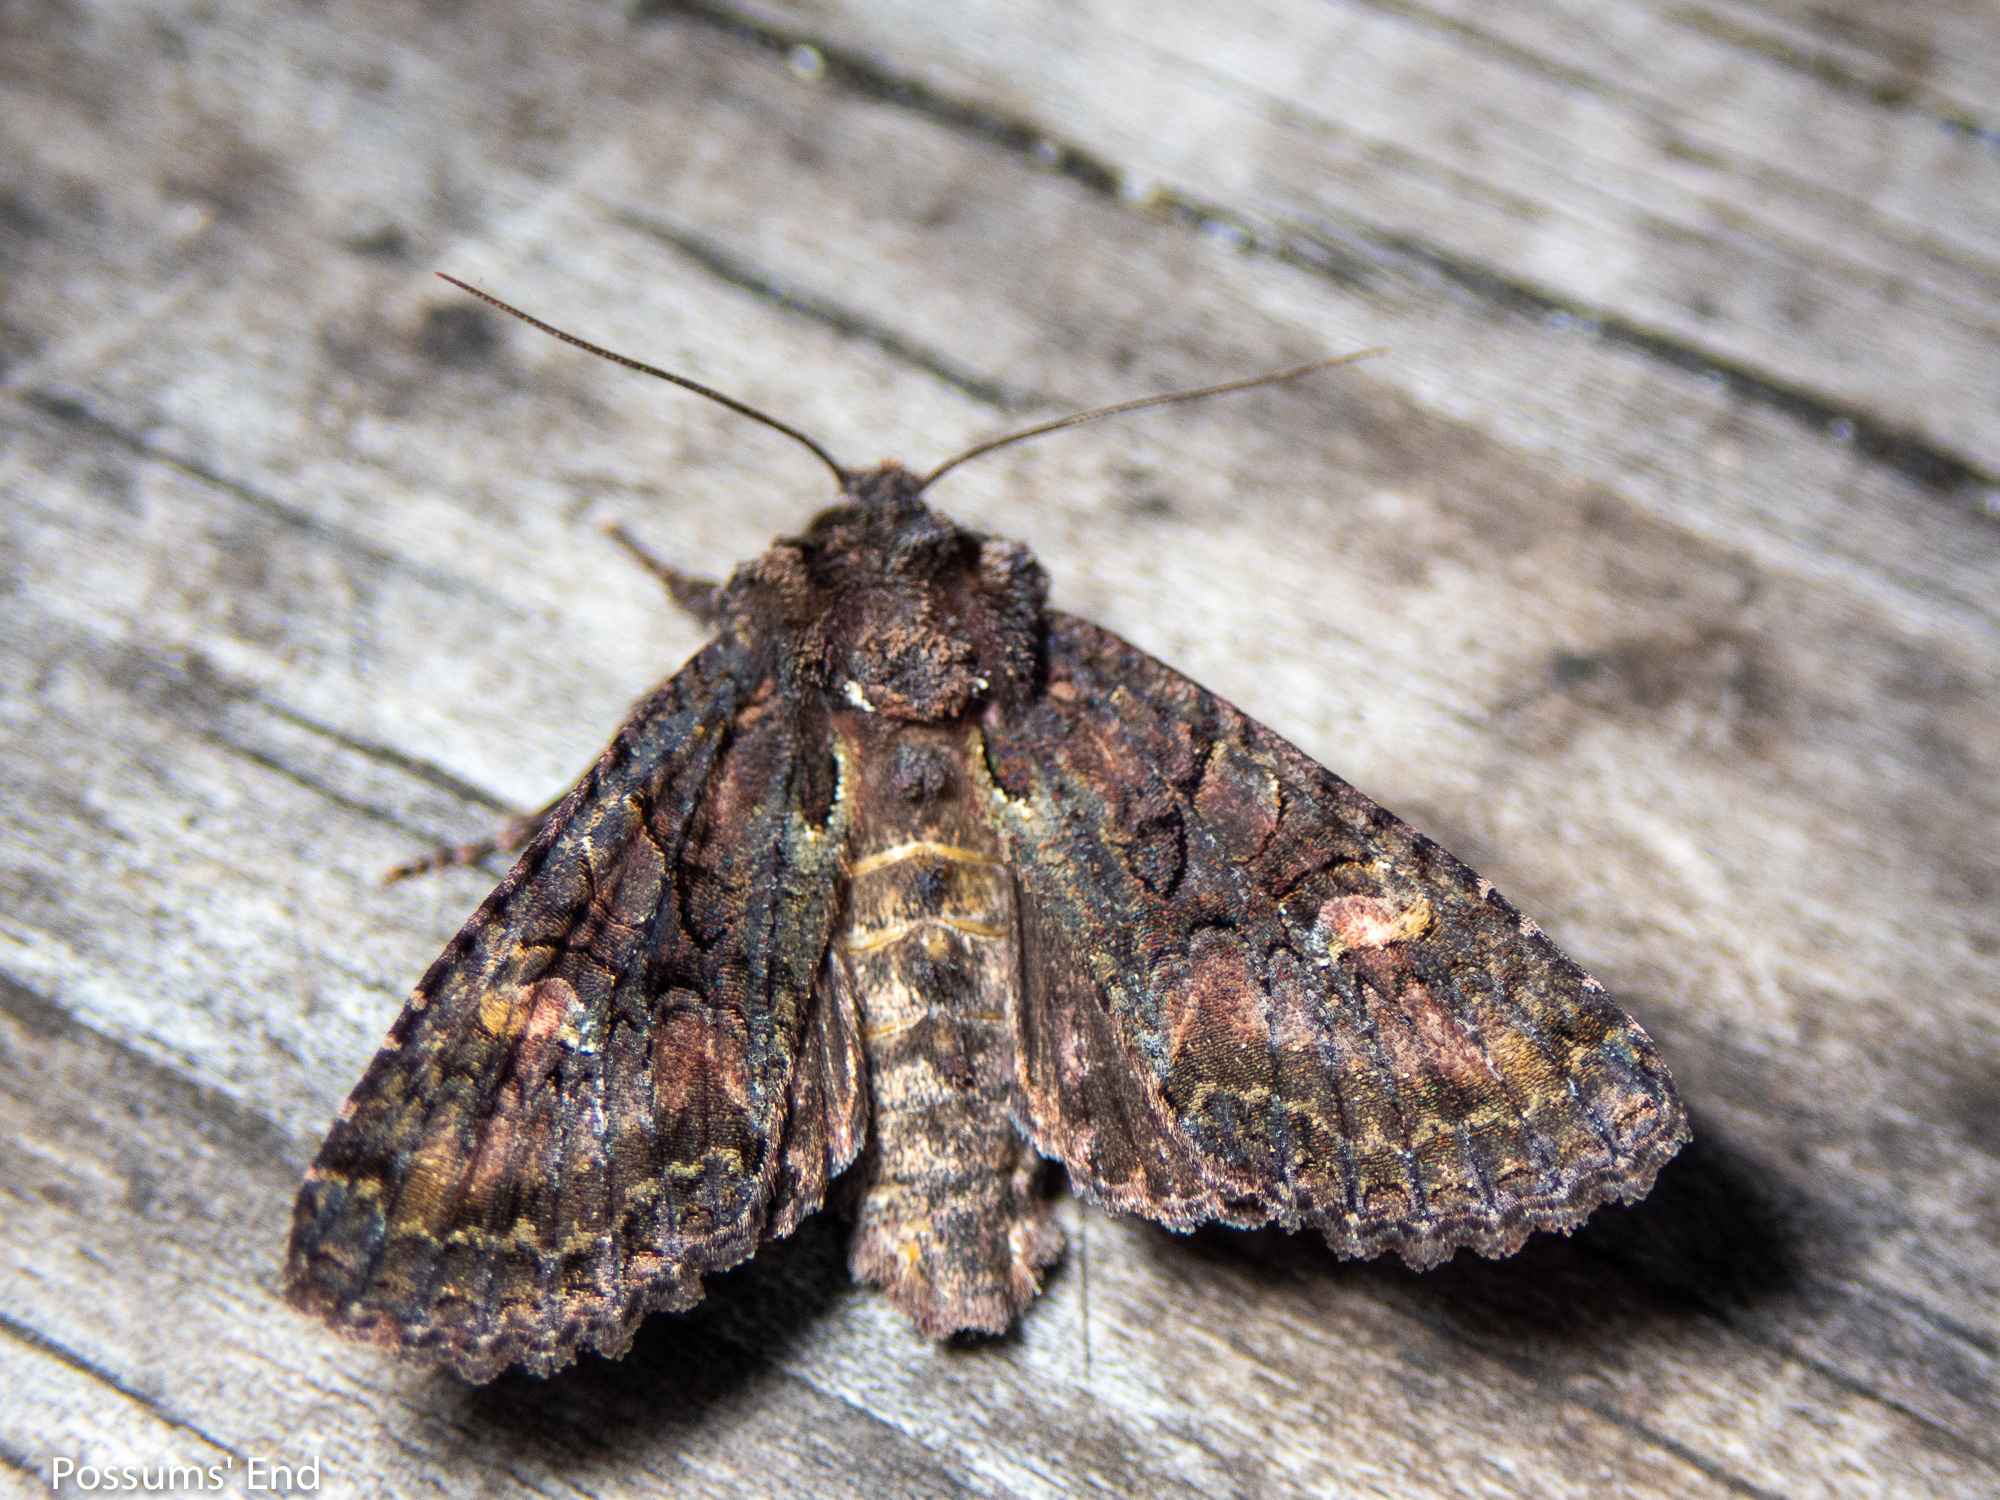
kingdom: Animalia
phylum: Arthropoda
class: Insecta
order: Lepidoptera
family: Noctuidae
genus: Meterana
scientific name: Meterana dotata
